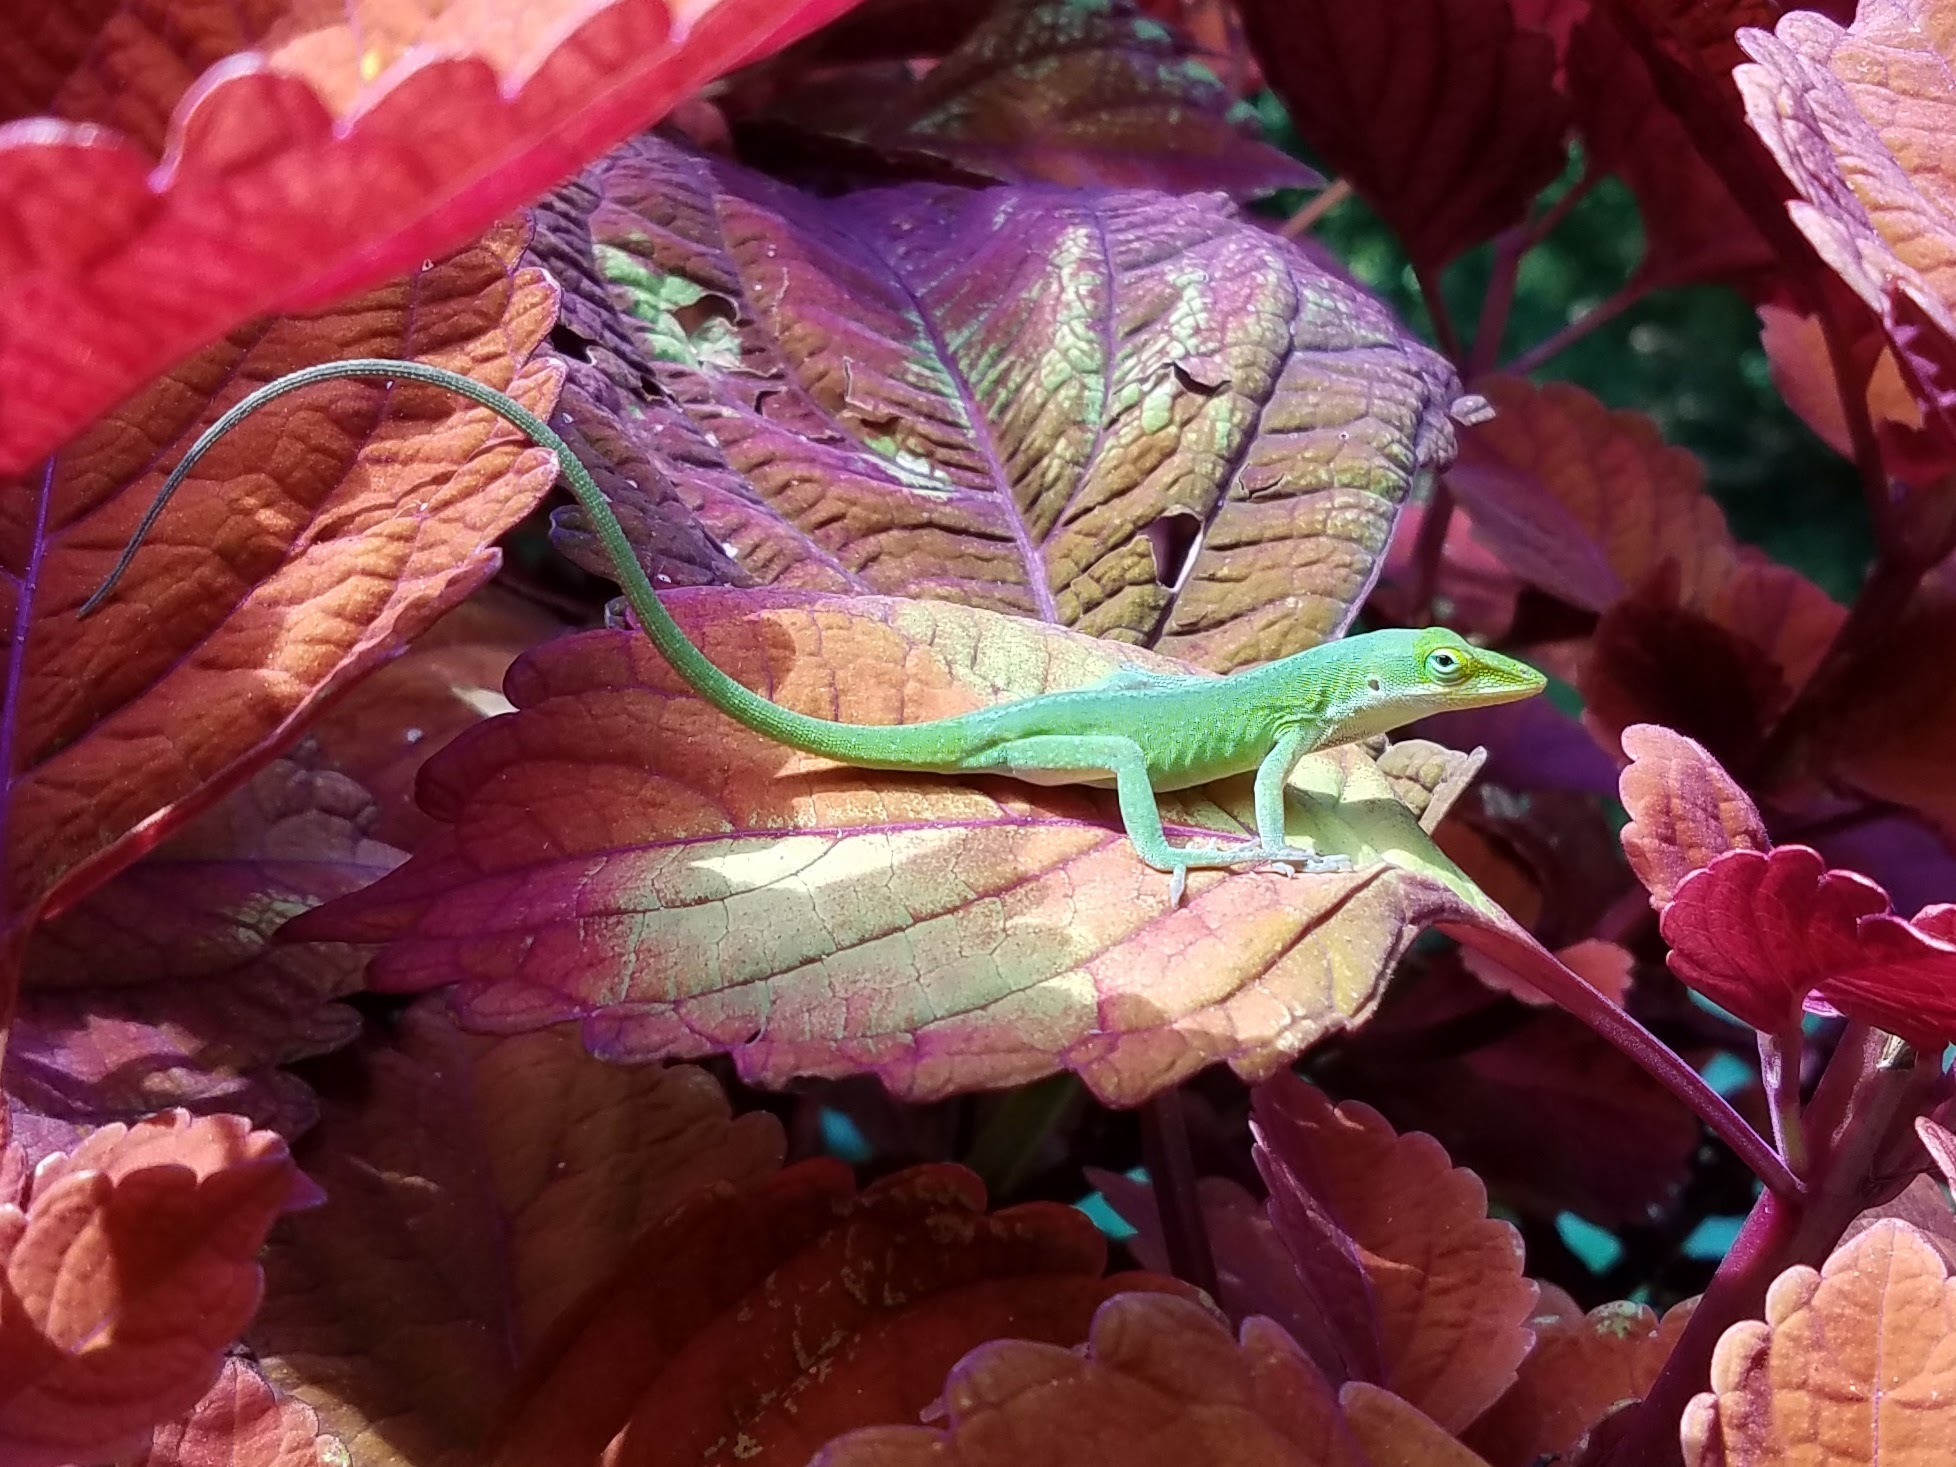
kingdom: Animalia
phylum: Chordata
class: Squamata
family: Dactyloidae
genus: Anolis
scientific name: Anolis carolinensis
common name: Green anole
